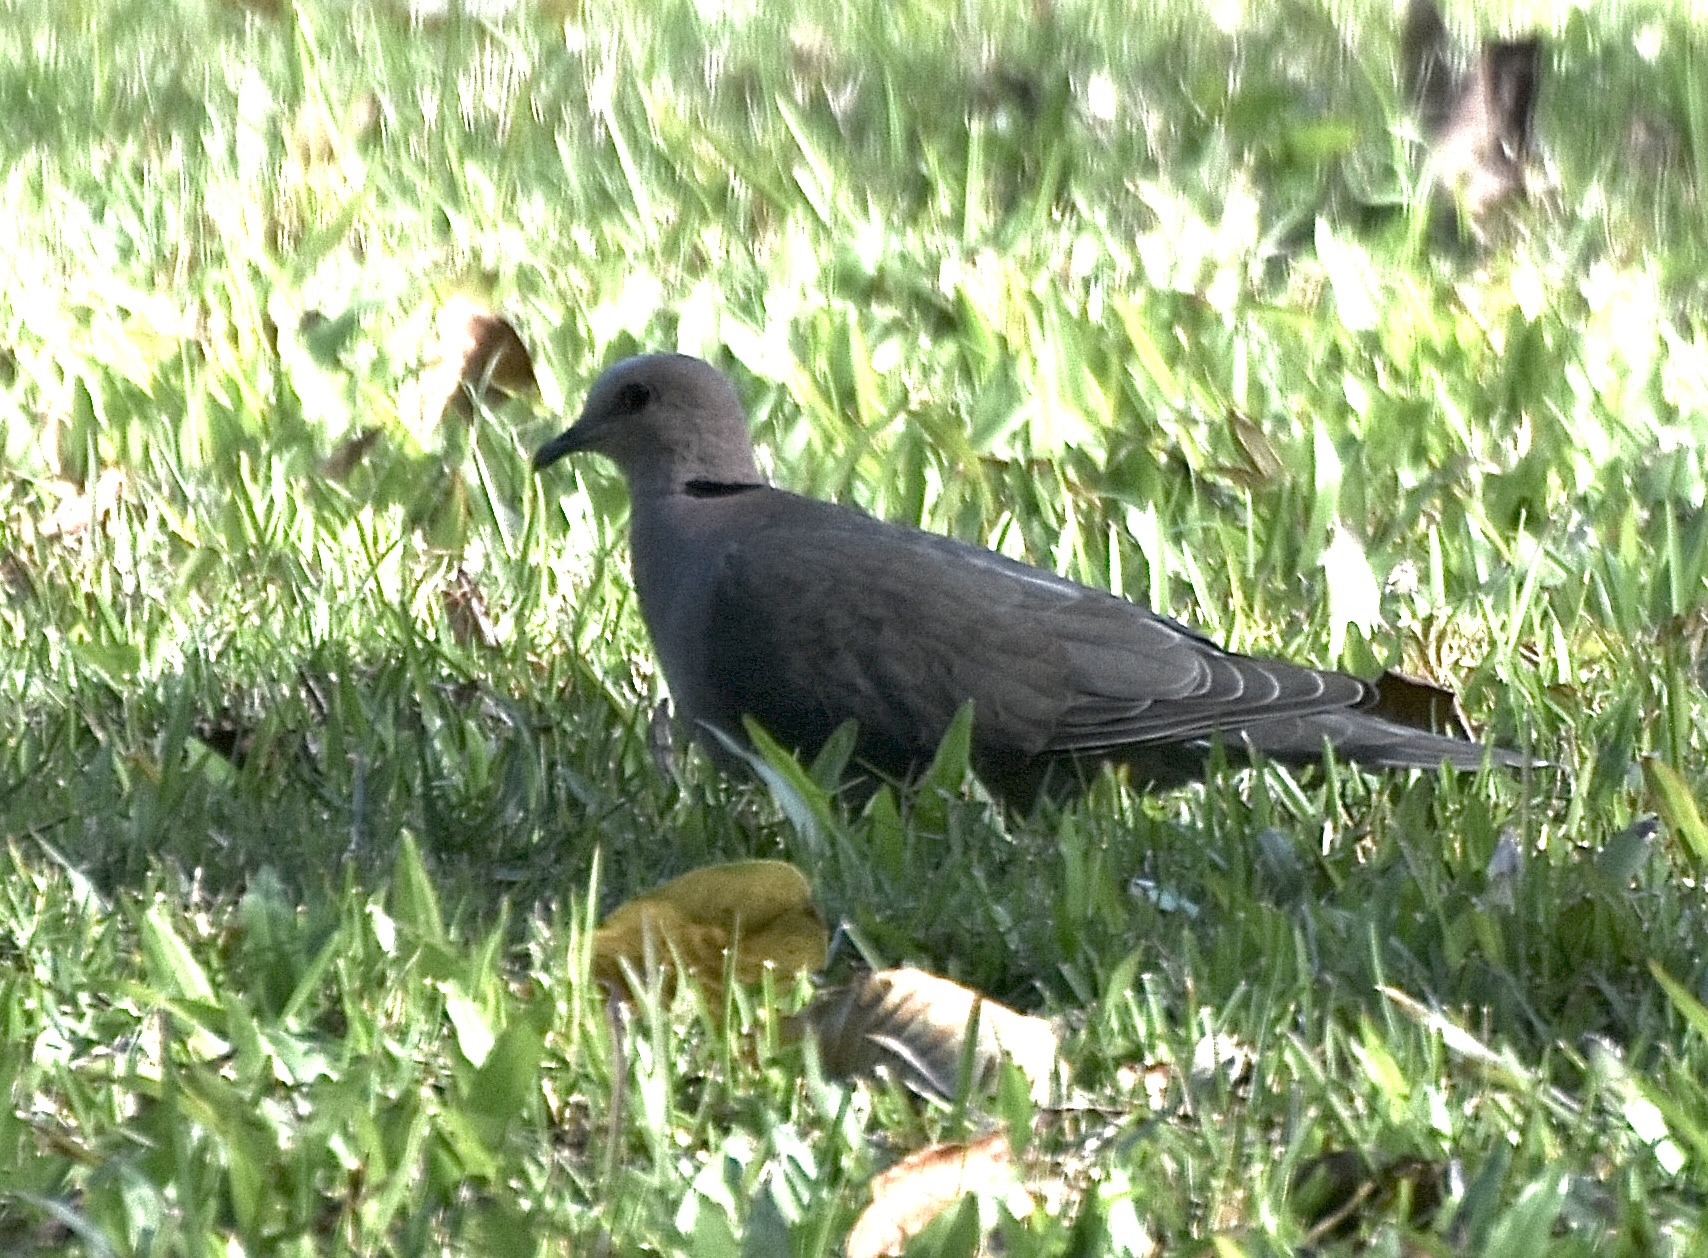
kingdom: Animalia
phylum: Chordata
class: Aves
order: Columbiformes
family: Columbidae
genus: Streptopelia
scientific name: Streptopelia semitorquata
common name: Red-eyed dove
